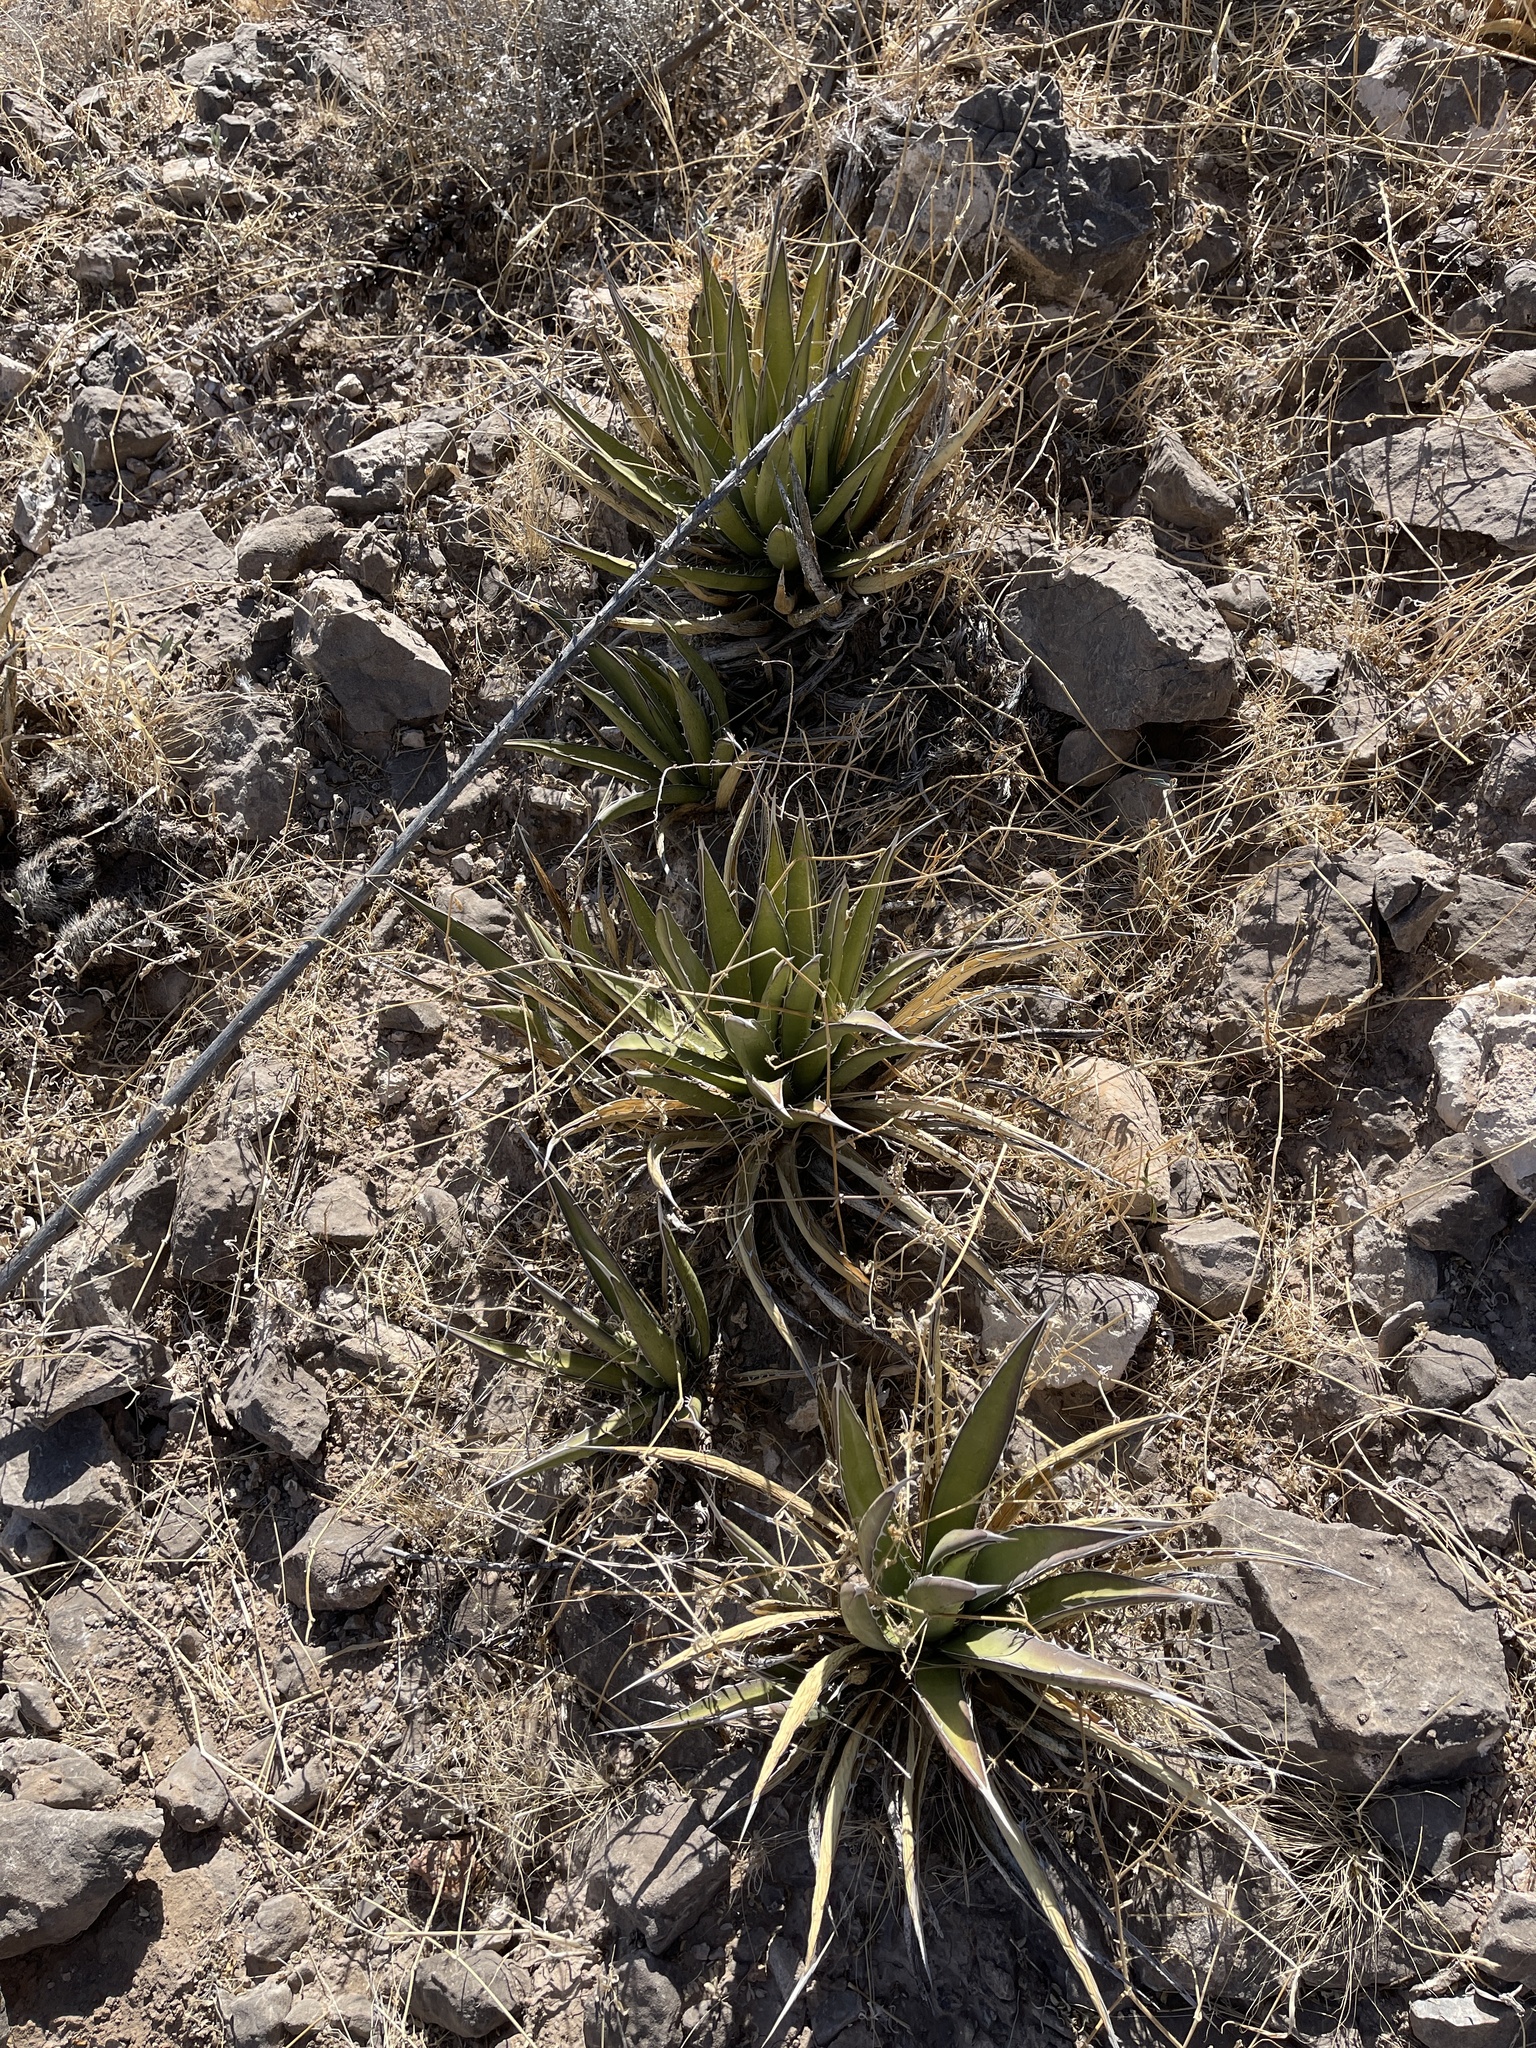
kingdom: Plantae
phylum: Tracheophyta
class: Liliopsida
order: Asparagales
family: Asparagaceae
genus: Agave
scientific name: Agave lechuguilla
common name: Lecheguilla agave
